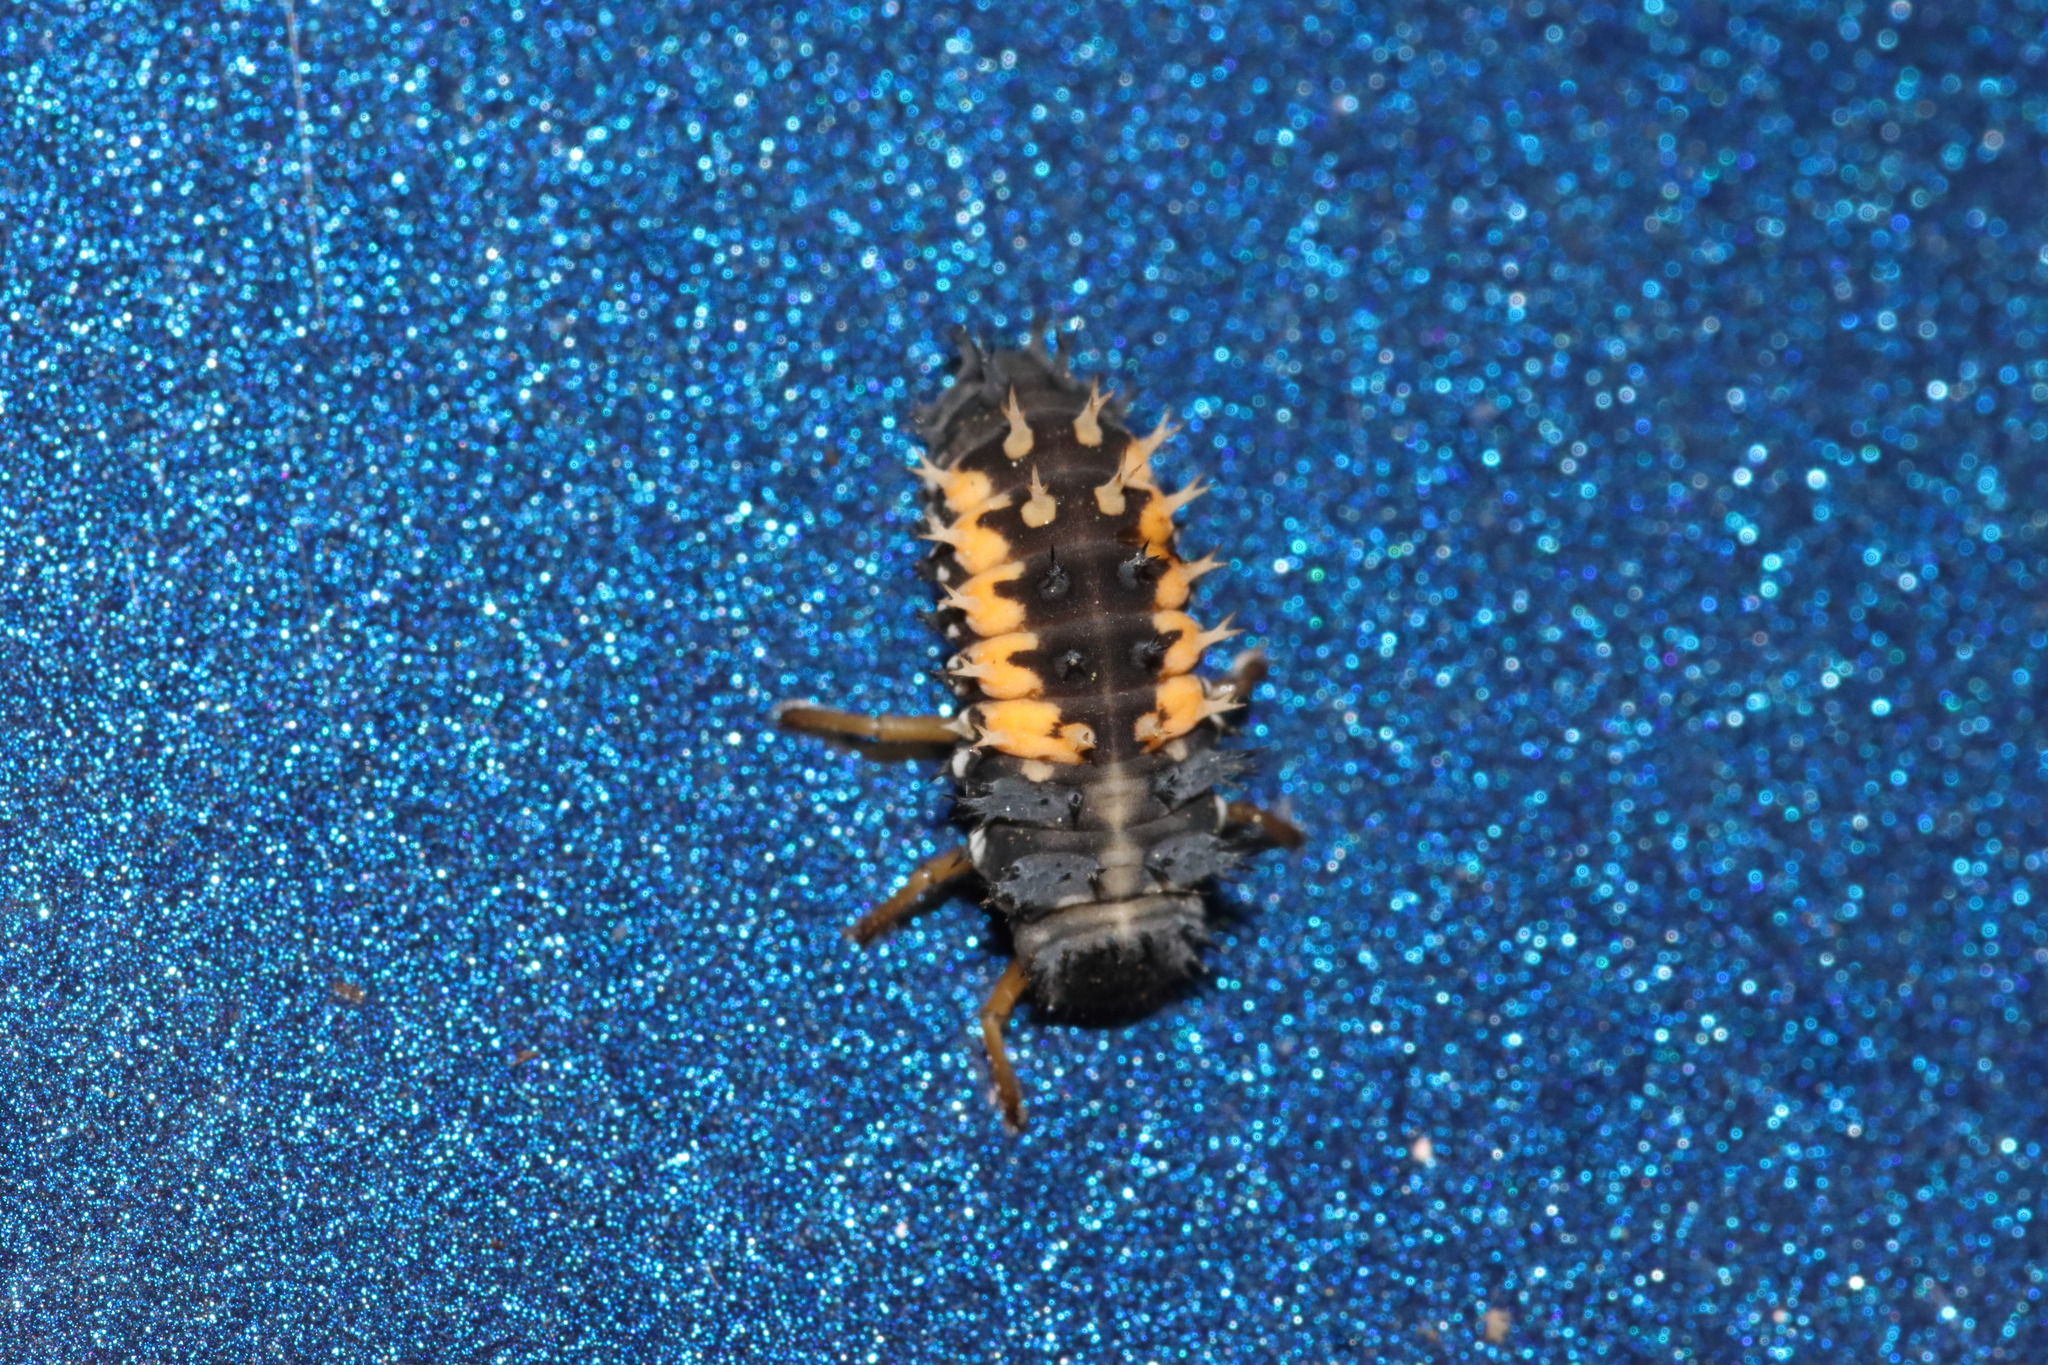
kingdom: Animalia
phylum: Arthropoda
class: Insecta
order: Coleoptera
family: Coccinellidae
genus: Harmonia
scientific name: Harmonia axyridis
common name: Harlequin ladybird
